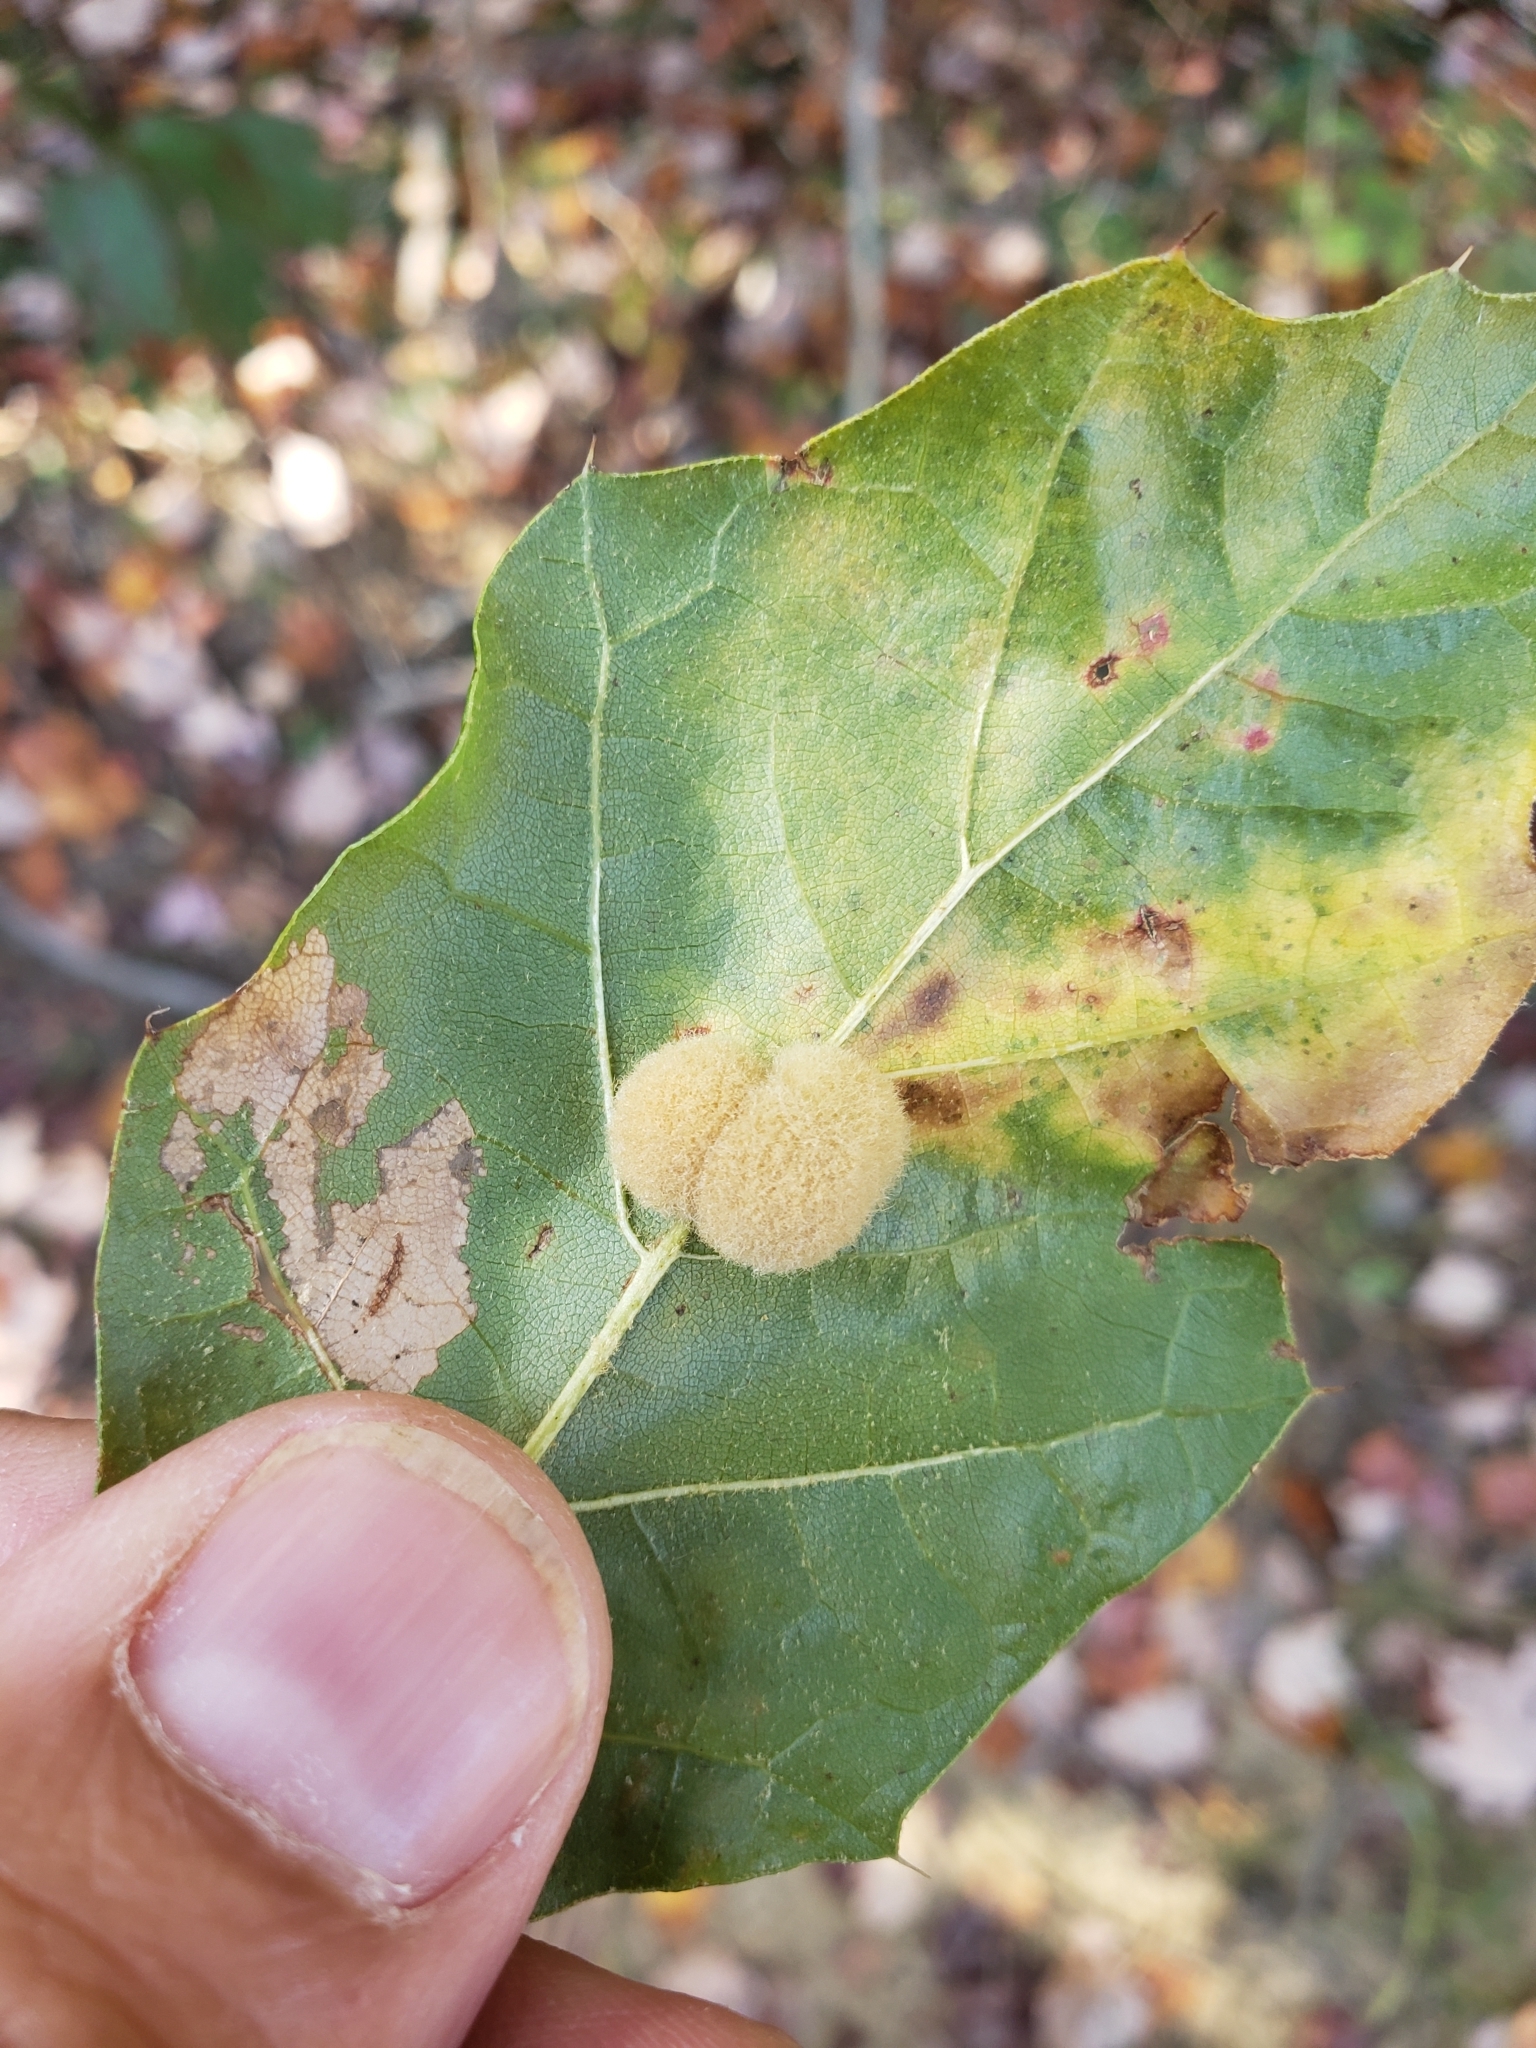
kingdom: Animalia
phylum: Arthropoda
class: Insecta
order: Hymenoptera
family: Cynipidae
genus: Callirhytis
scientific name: Callirhytis
